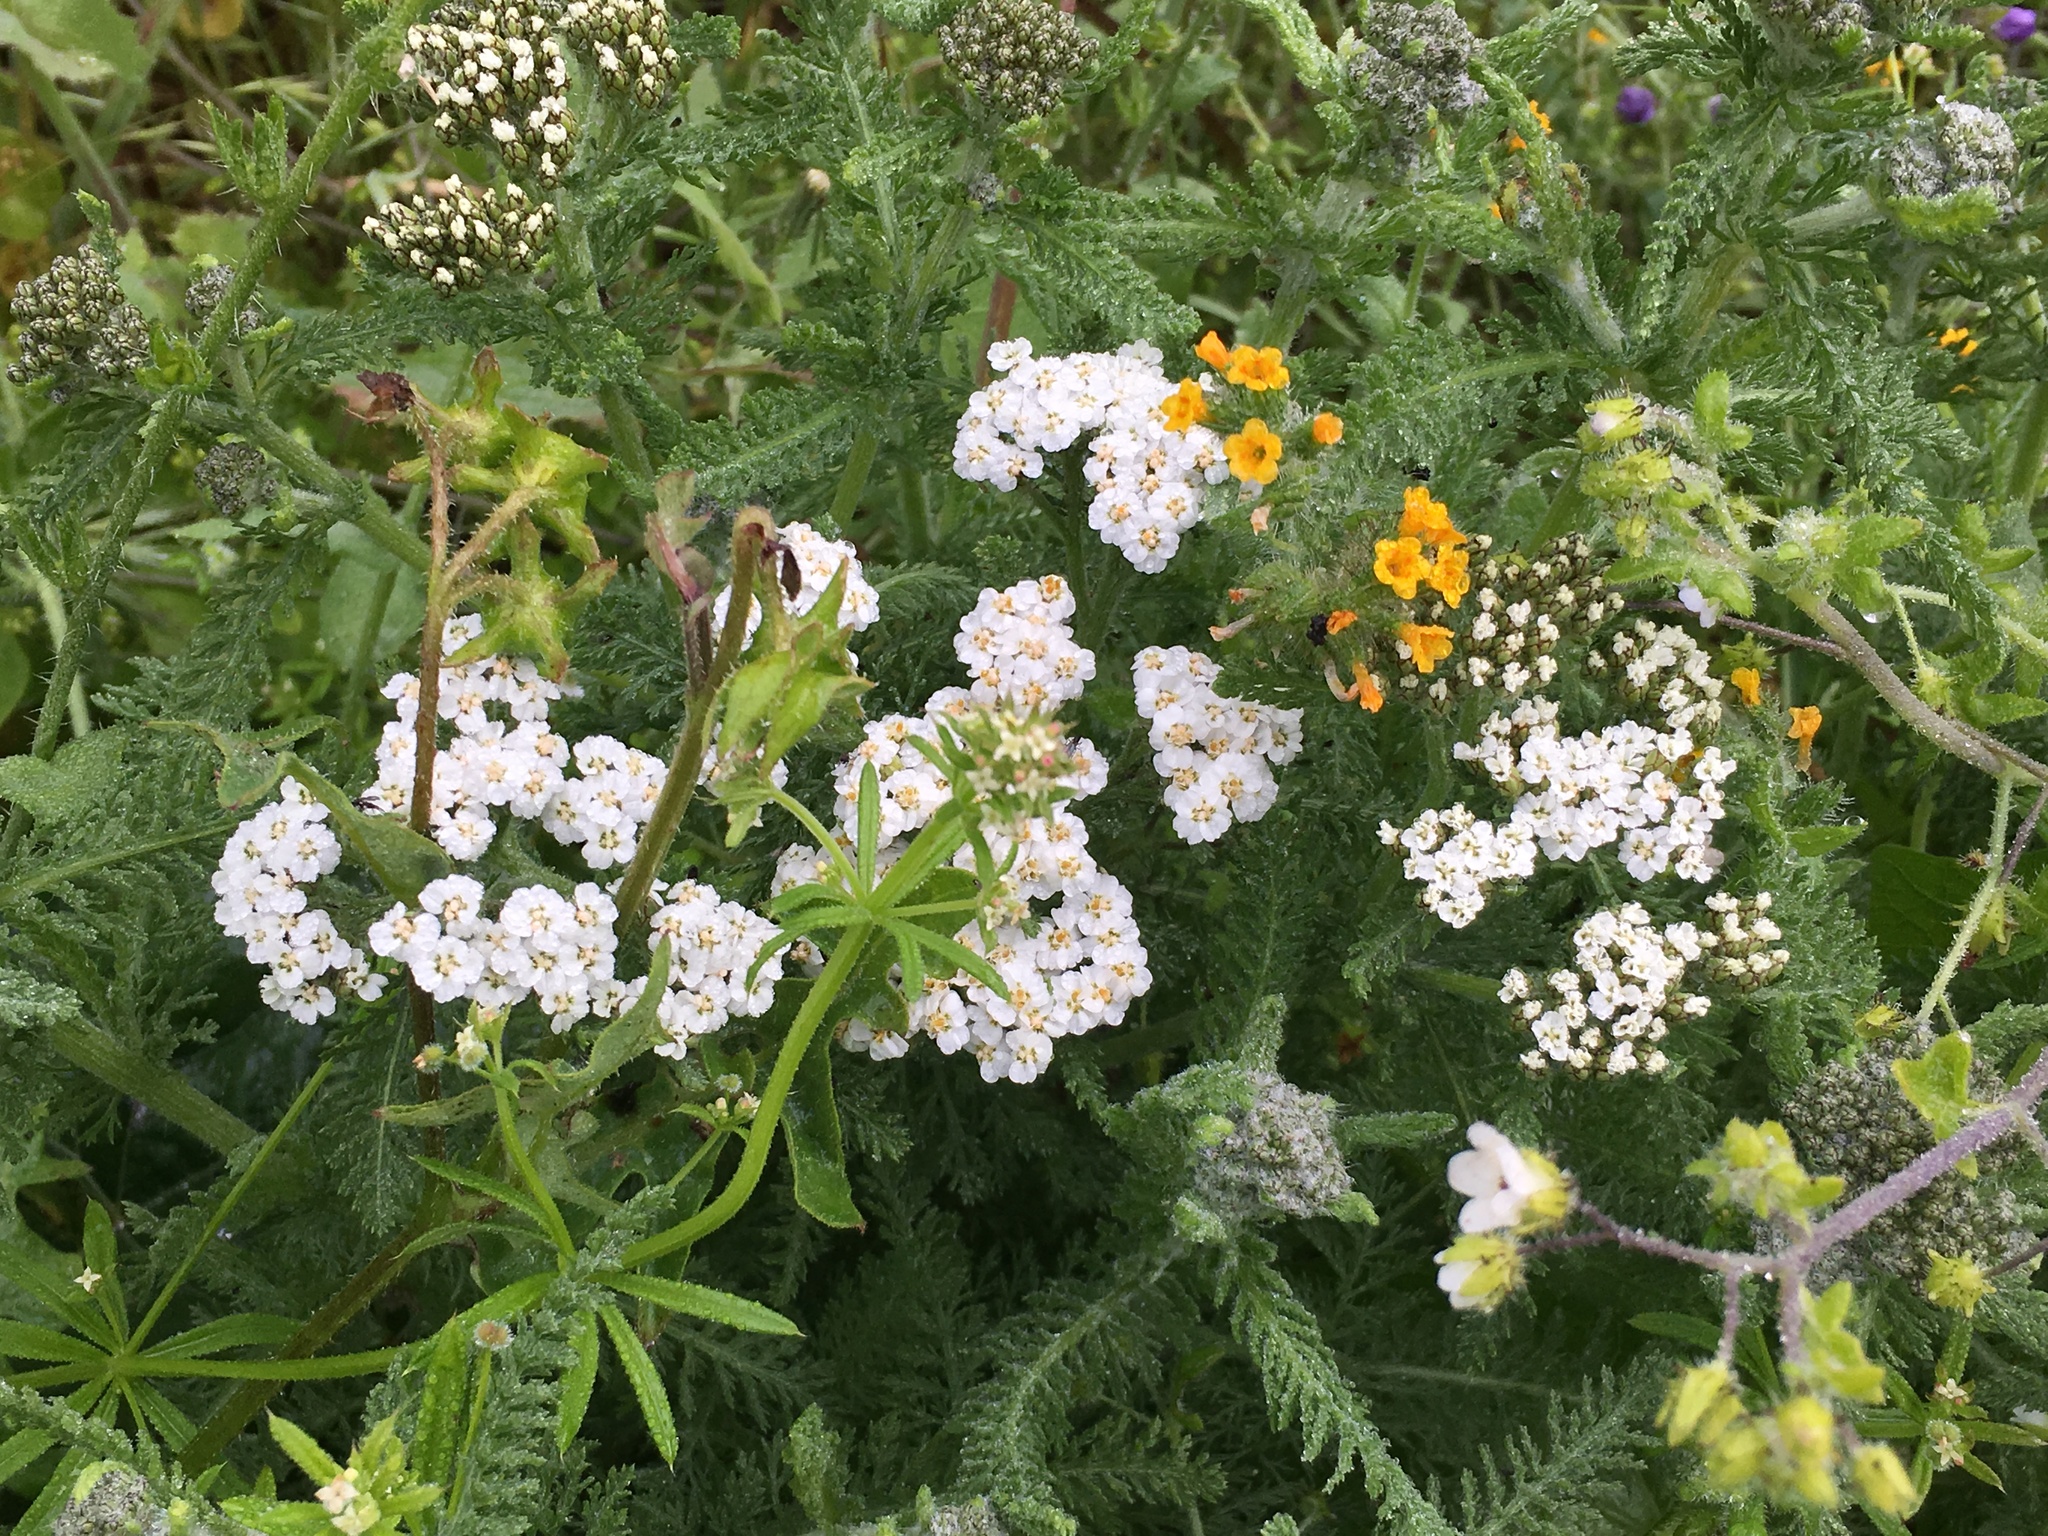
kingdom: Plantae
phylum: Tracheophyta
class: Magnoliopsida
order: Gentianales
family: Rubiaceae
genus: Galium
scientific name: Galium aparine
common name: Cleavers
